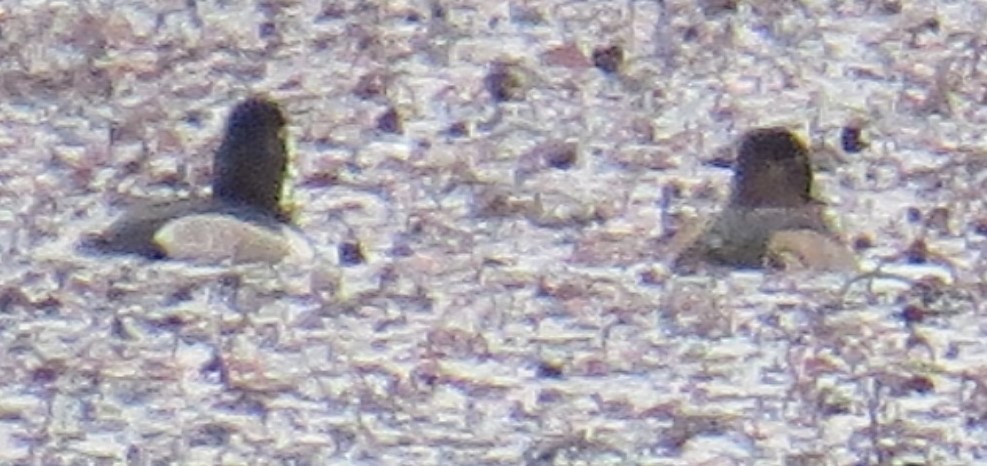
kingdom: Animalia
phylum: Chordata
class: Aves
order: Anseriformes
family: Anatidae
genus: Aythya
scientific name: Aythya collaris
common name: Ring-necked duck
